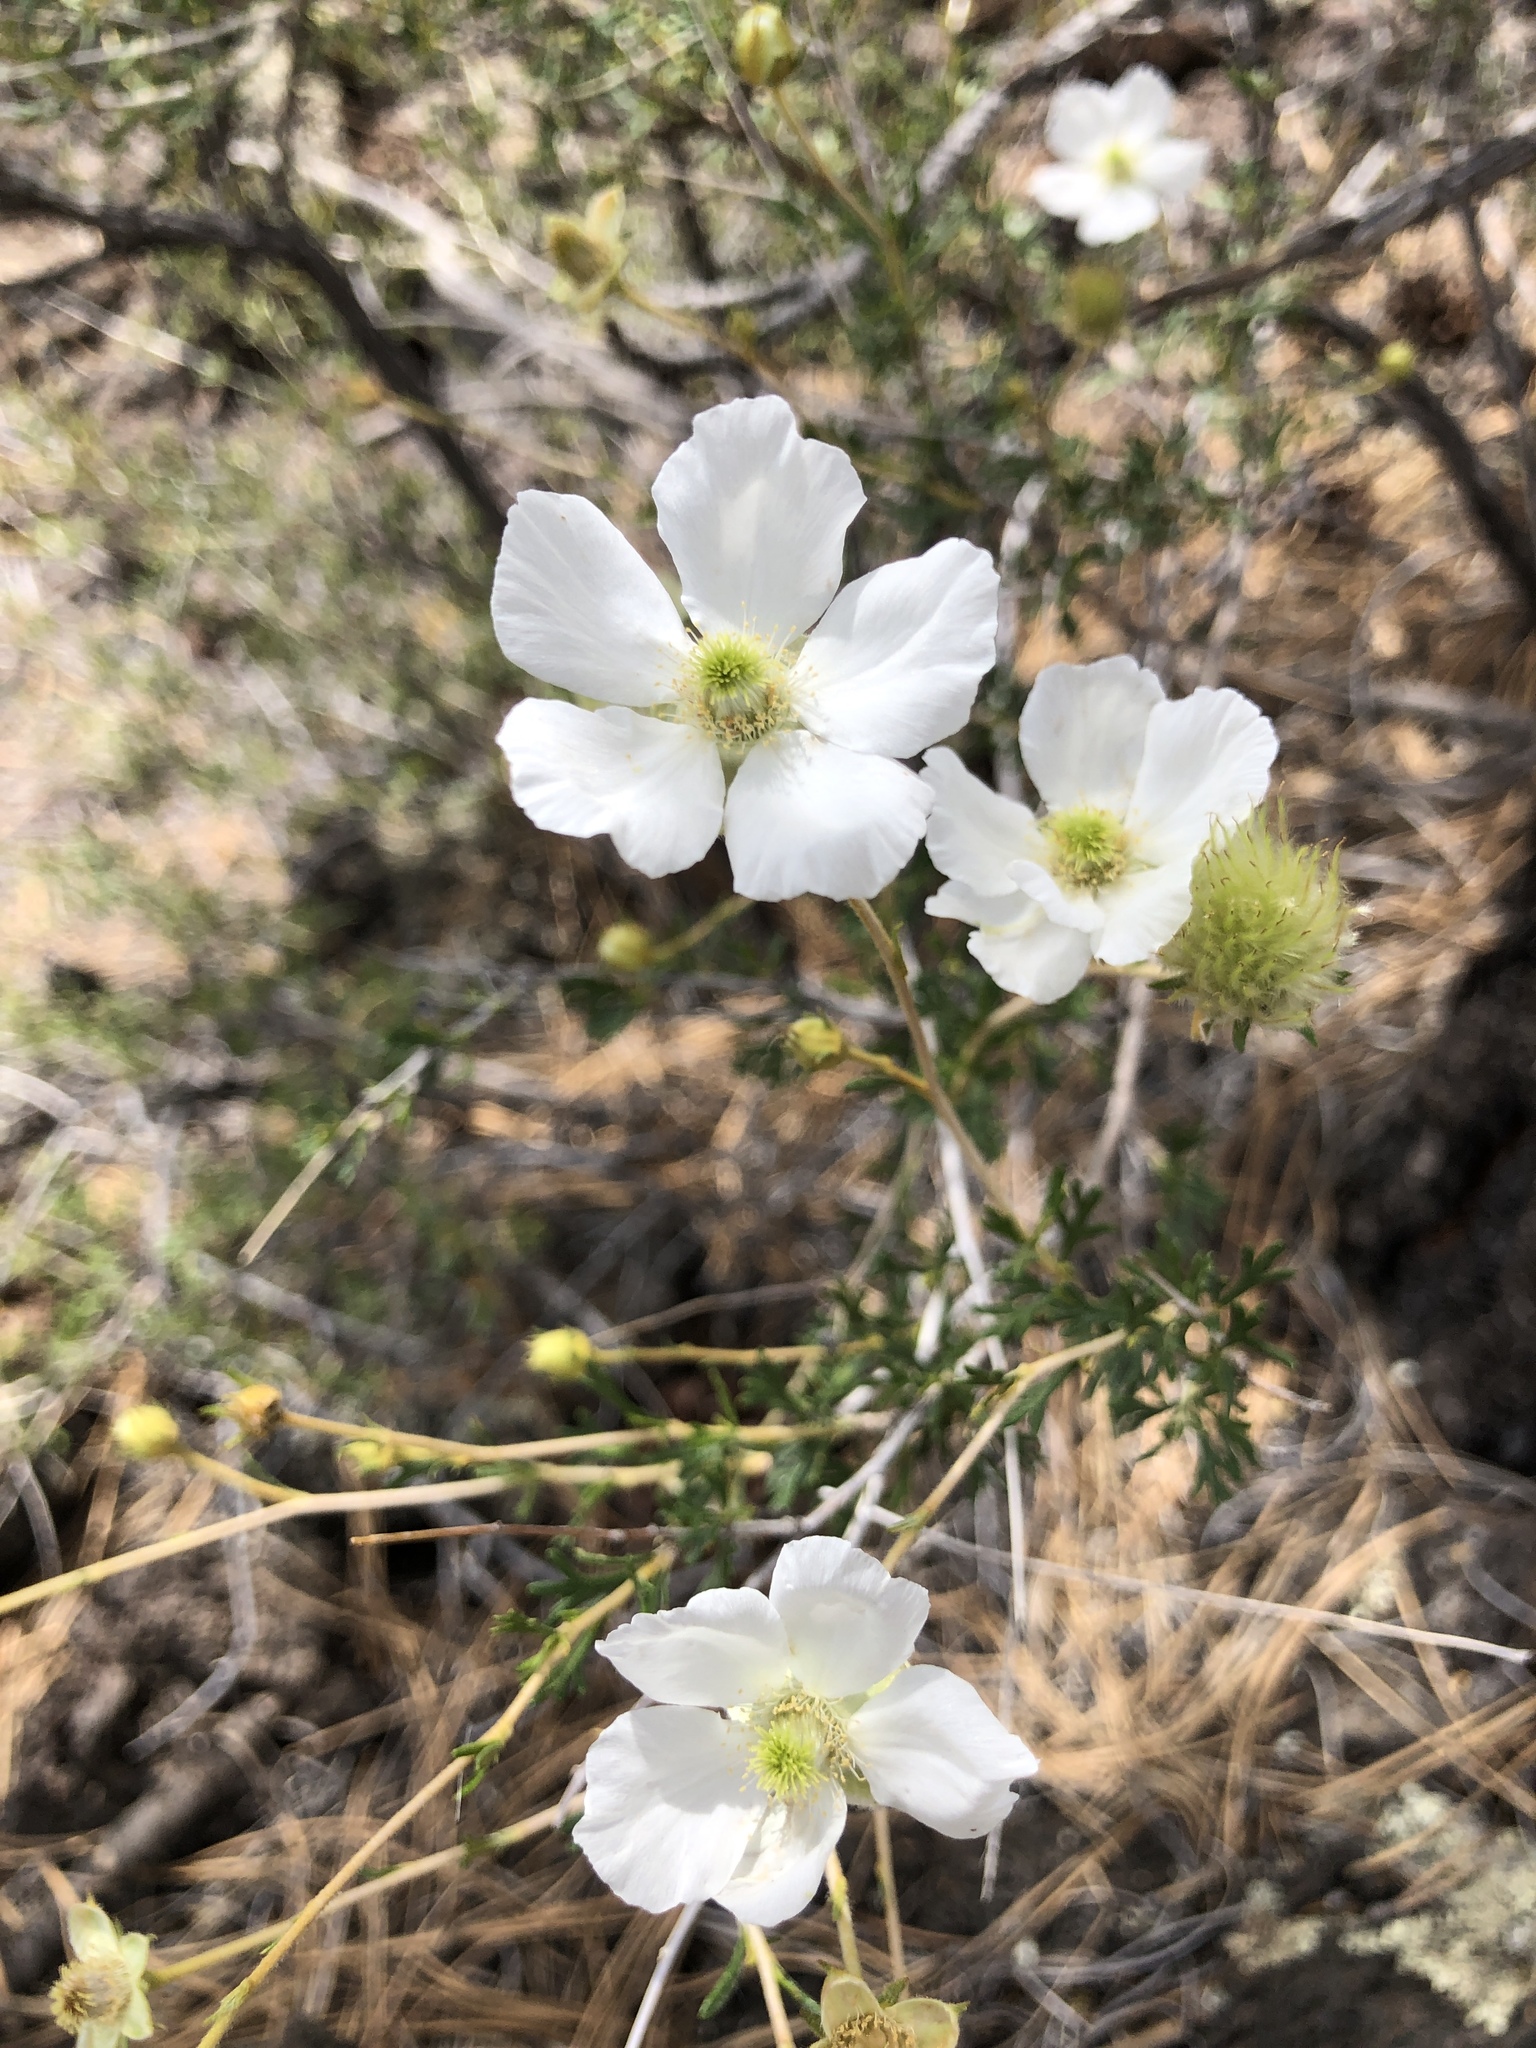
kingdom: Plantae
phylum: Tracheophyta
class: Magnoliopsida
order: Rosales
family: Rosaceae
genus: Fallugia
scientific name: Fallugia paradoxa
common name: Apache-plume
